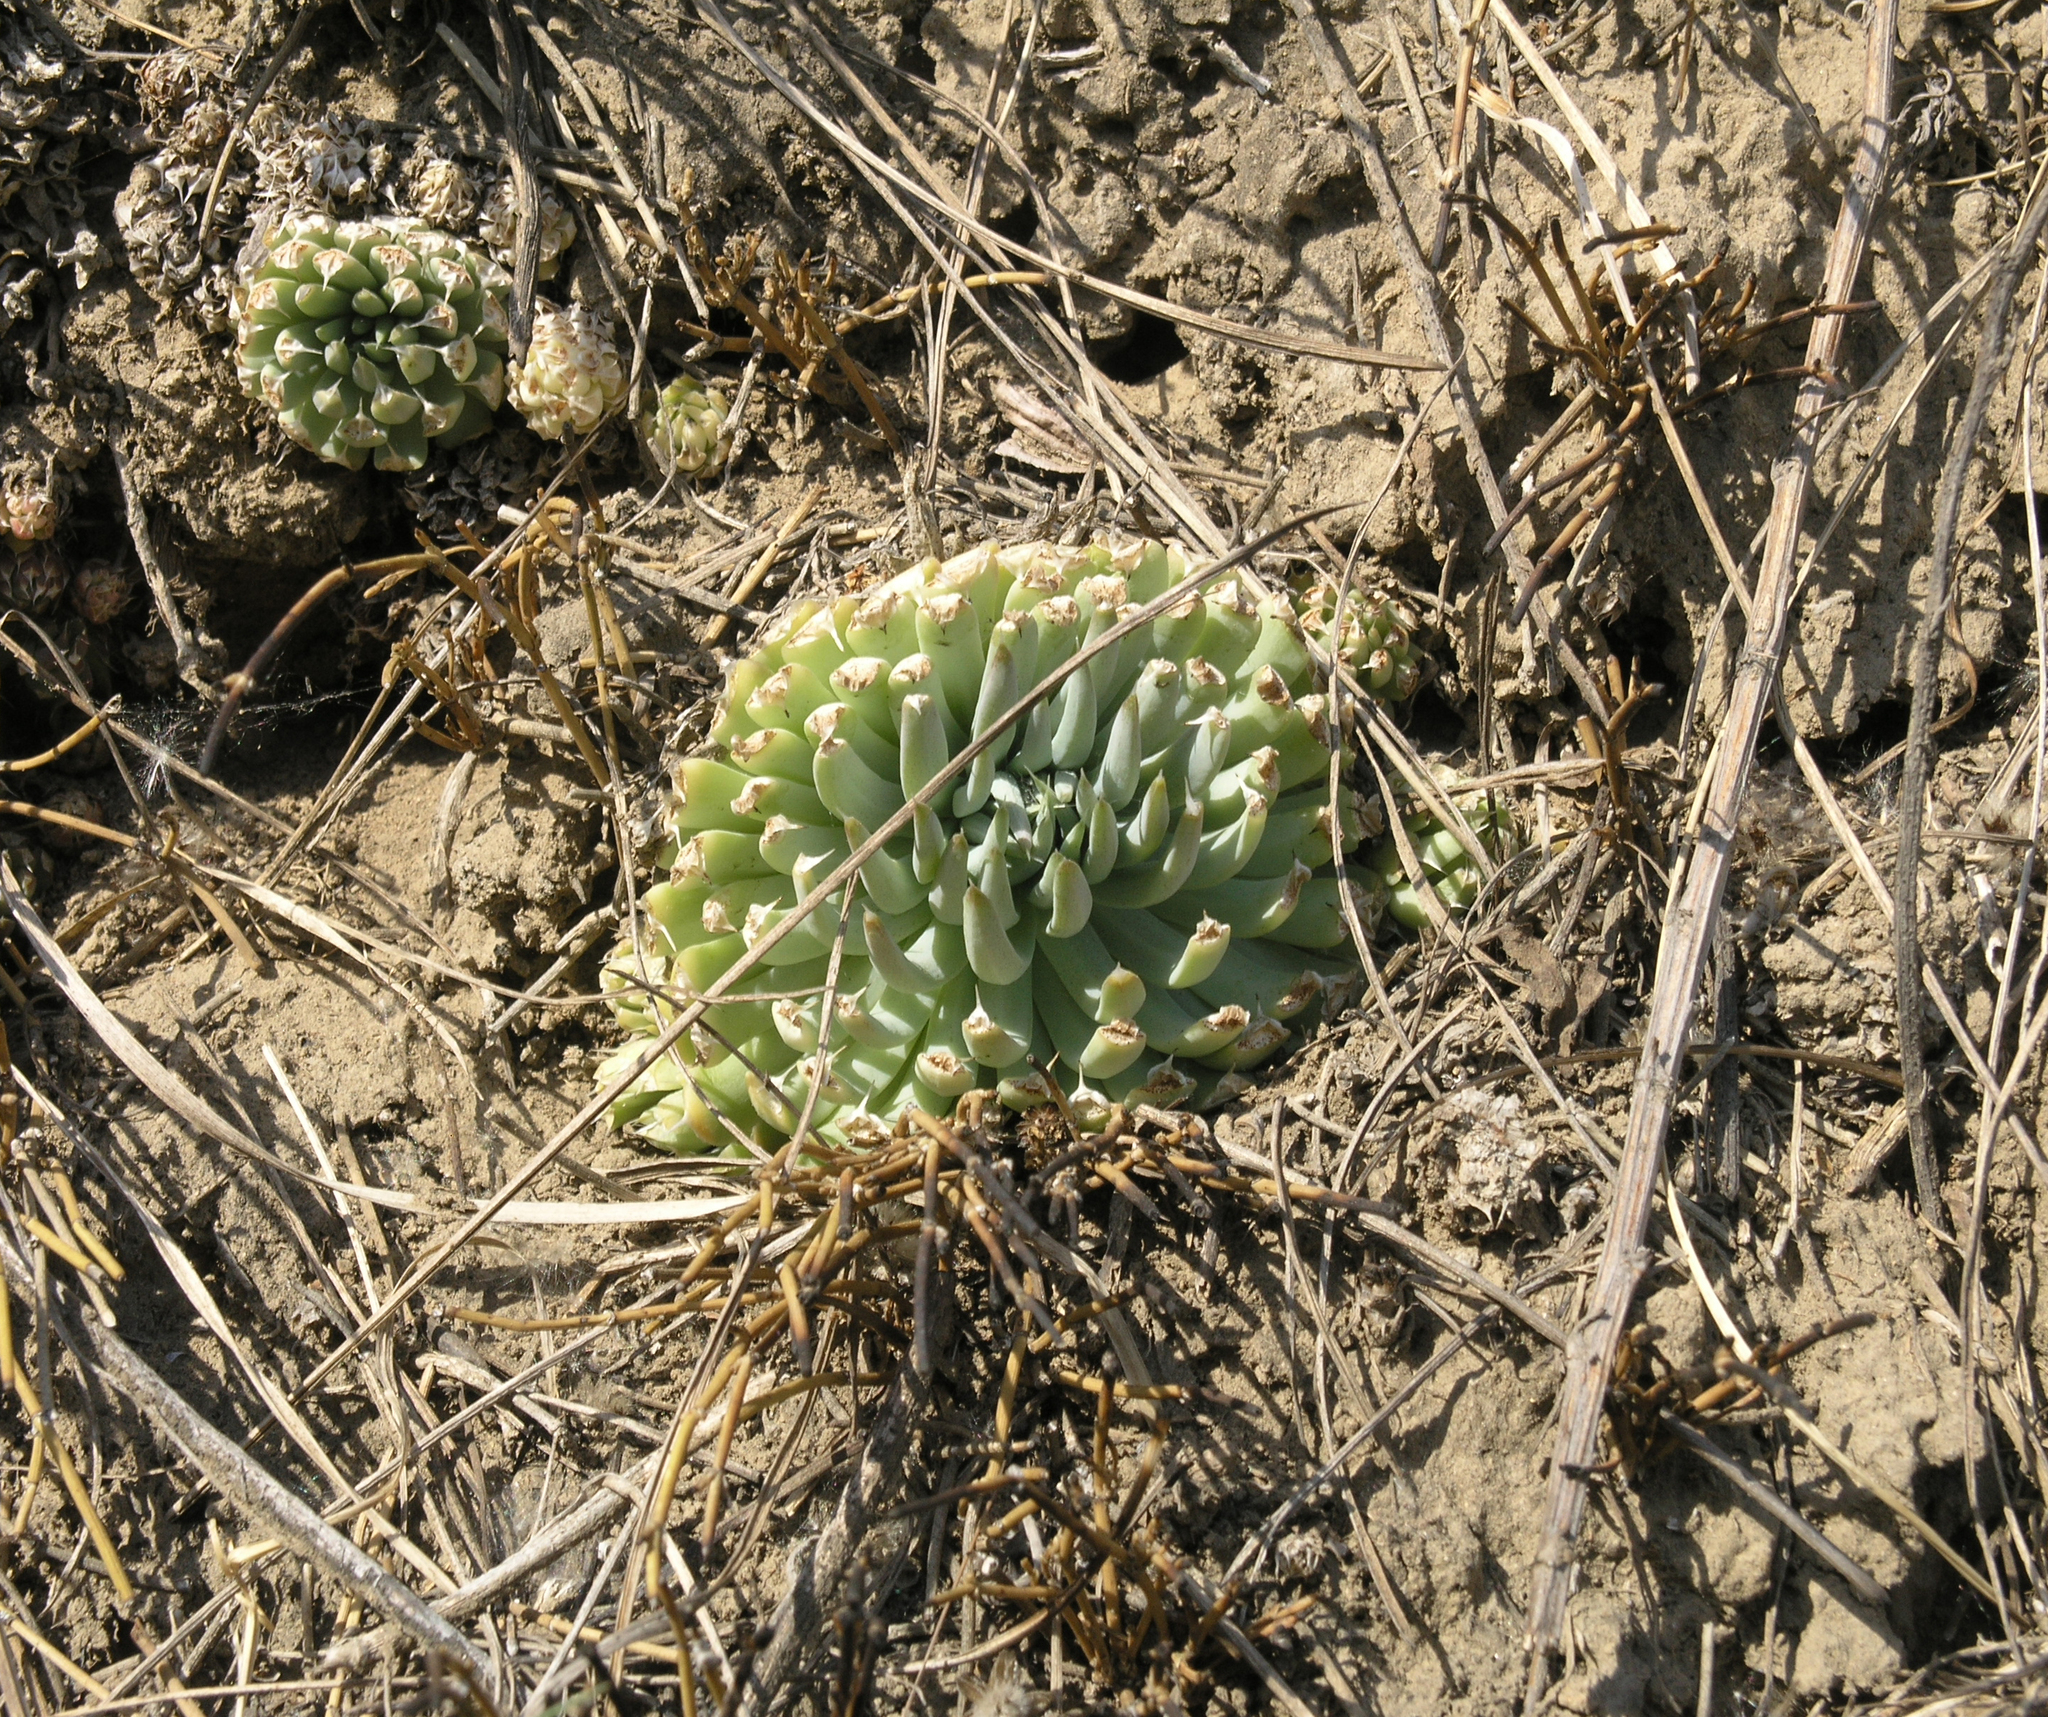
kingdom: Plantae
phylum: Tracheophyta
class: Gnetopsida
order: Ephedrales
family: Ephedraceae
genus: Ephedra
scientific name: Ephedra distachya
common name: Sea grape
